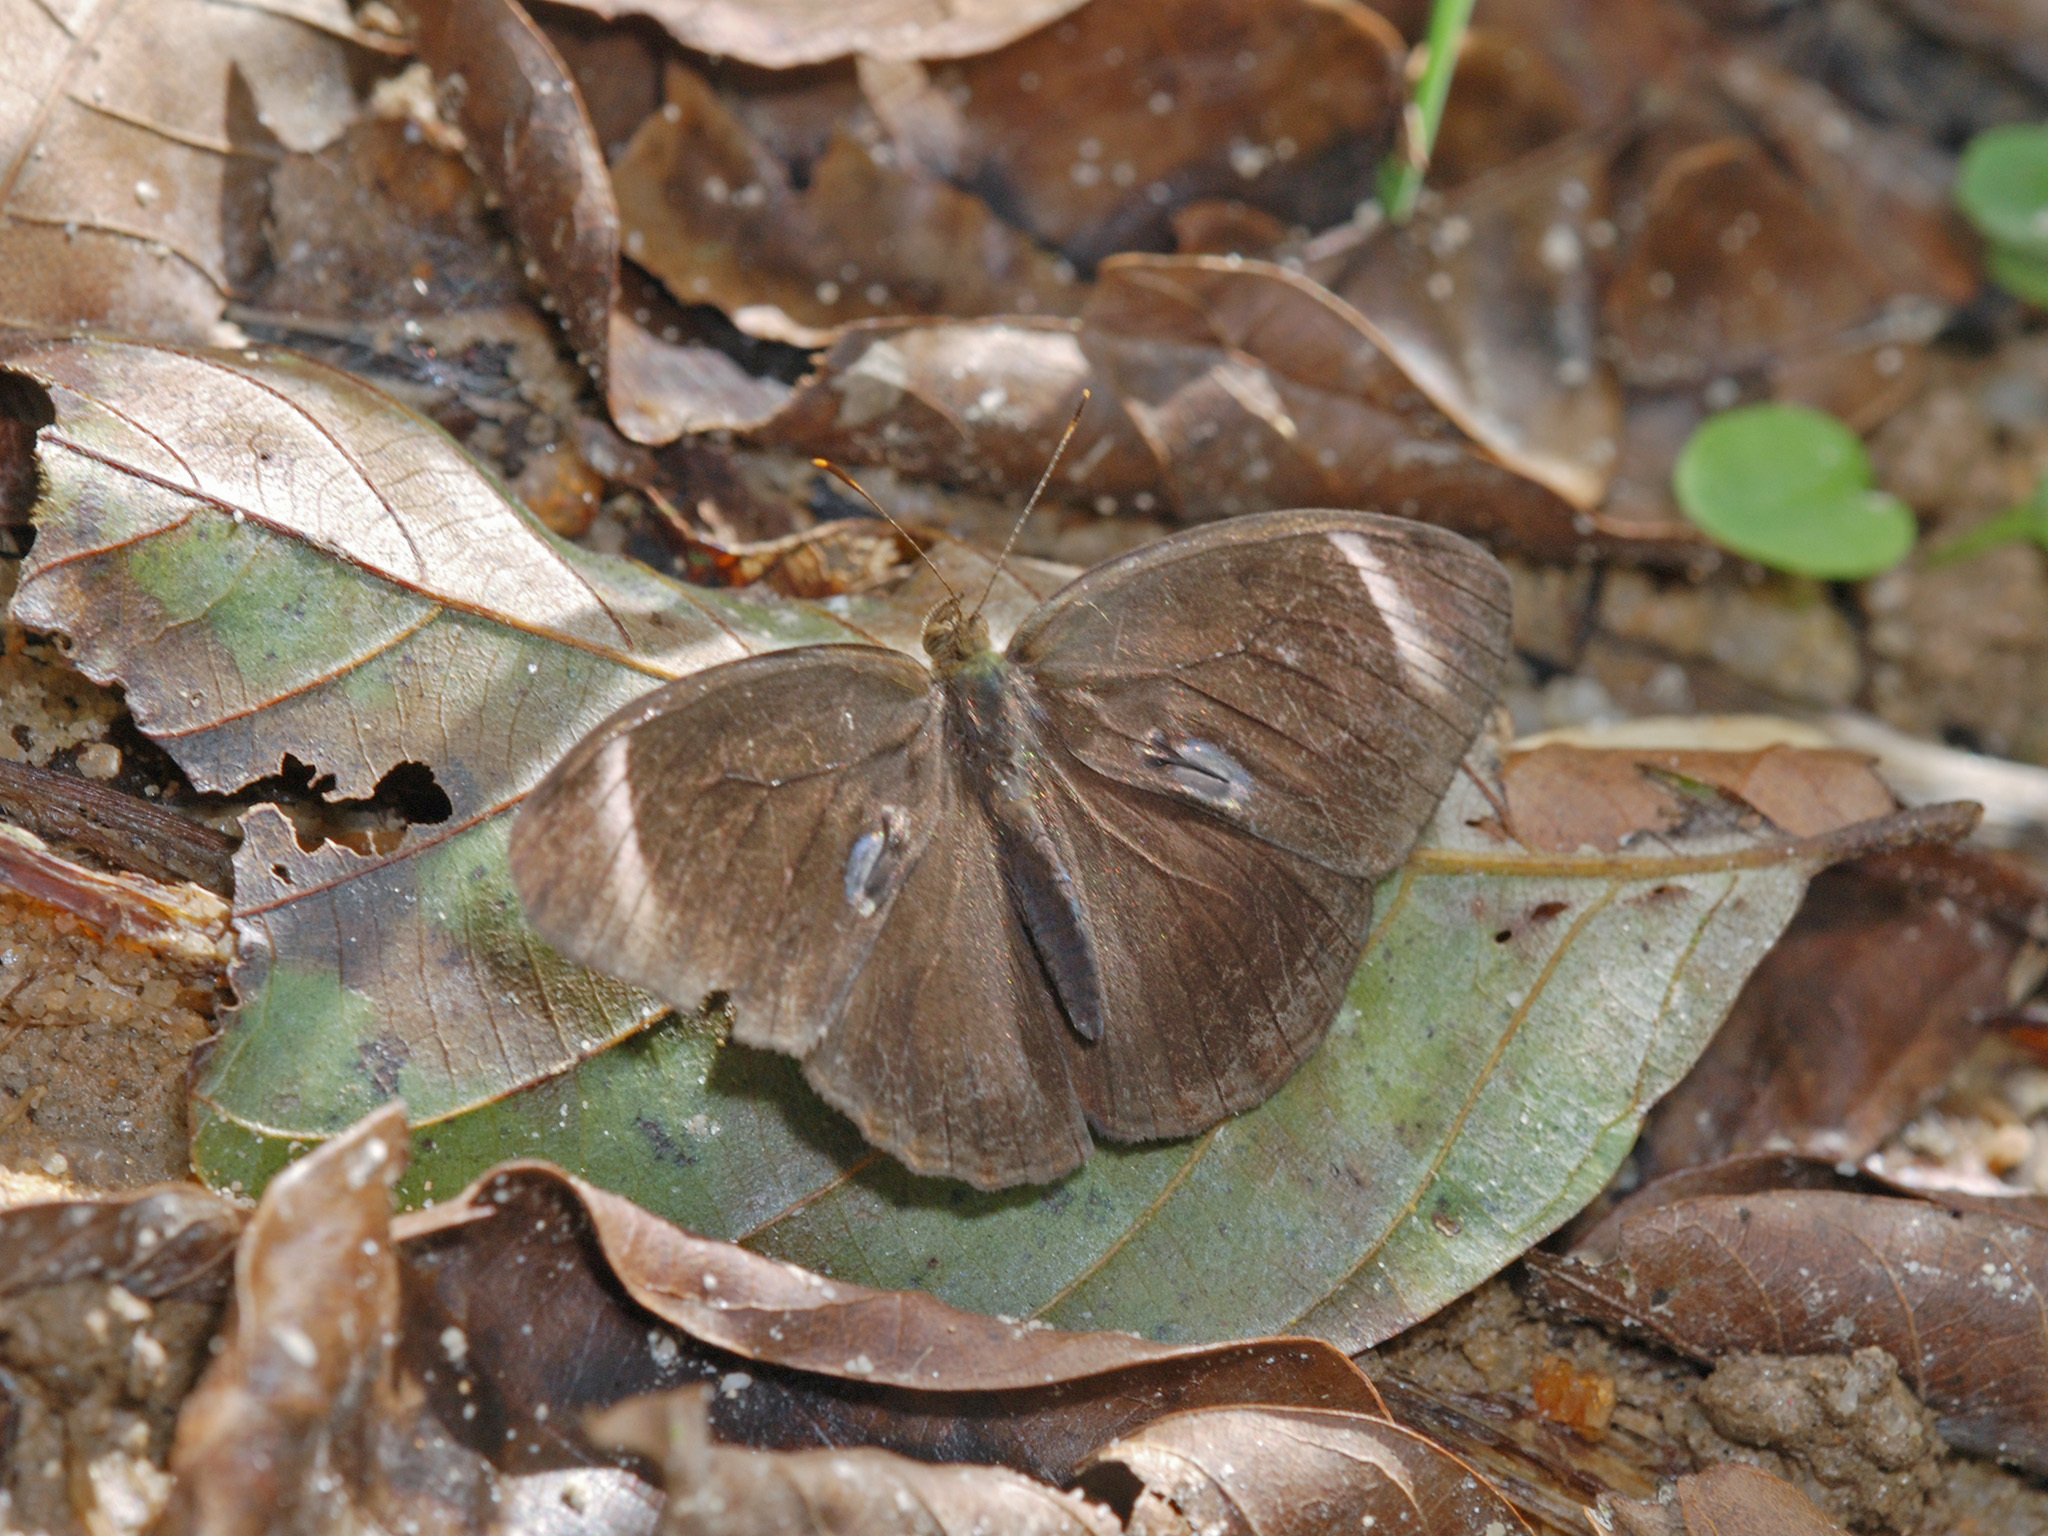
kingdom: Animalia
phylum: Arthropoda
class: Insecta
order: Lepidoptera
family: Nymphalidae
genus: Mycalesis
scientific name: Mycalesis anaxias
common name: White-bar bushbrown
